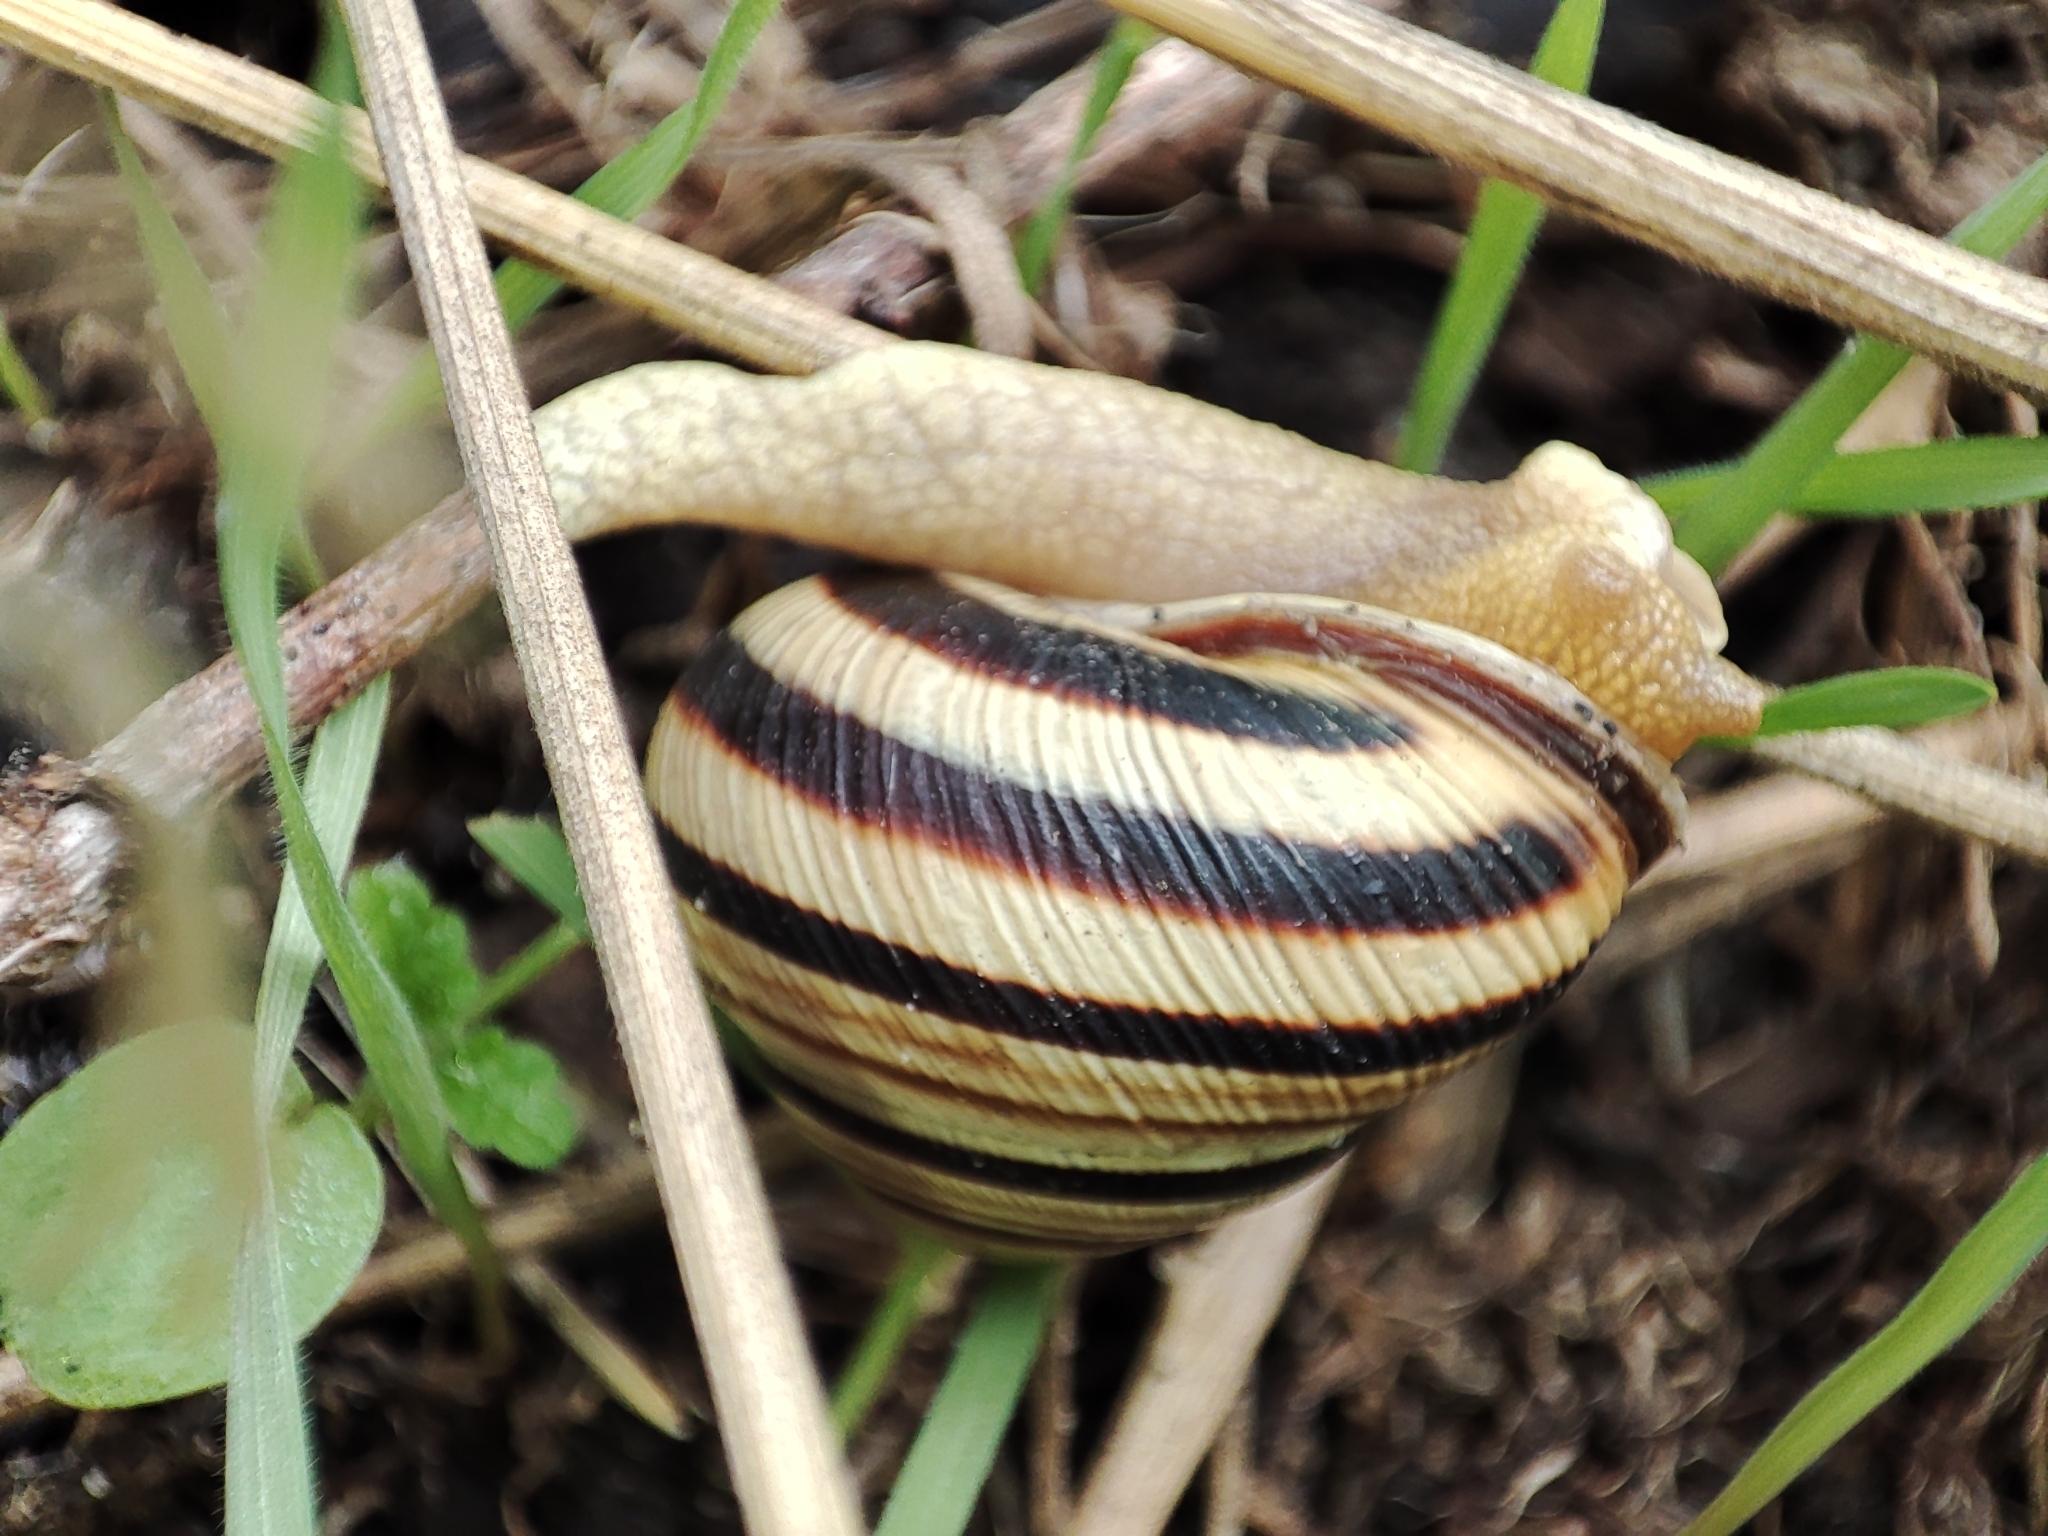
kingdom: Animalia
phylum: Mollusca
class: Gastropoda
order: Stylommatophora
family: Helicidae
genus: Caucasotachea
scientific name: Caucasotachea vindobonensis
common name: European helicid land snail
